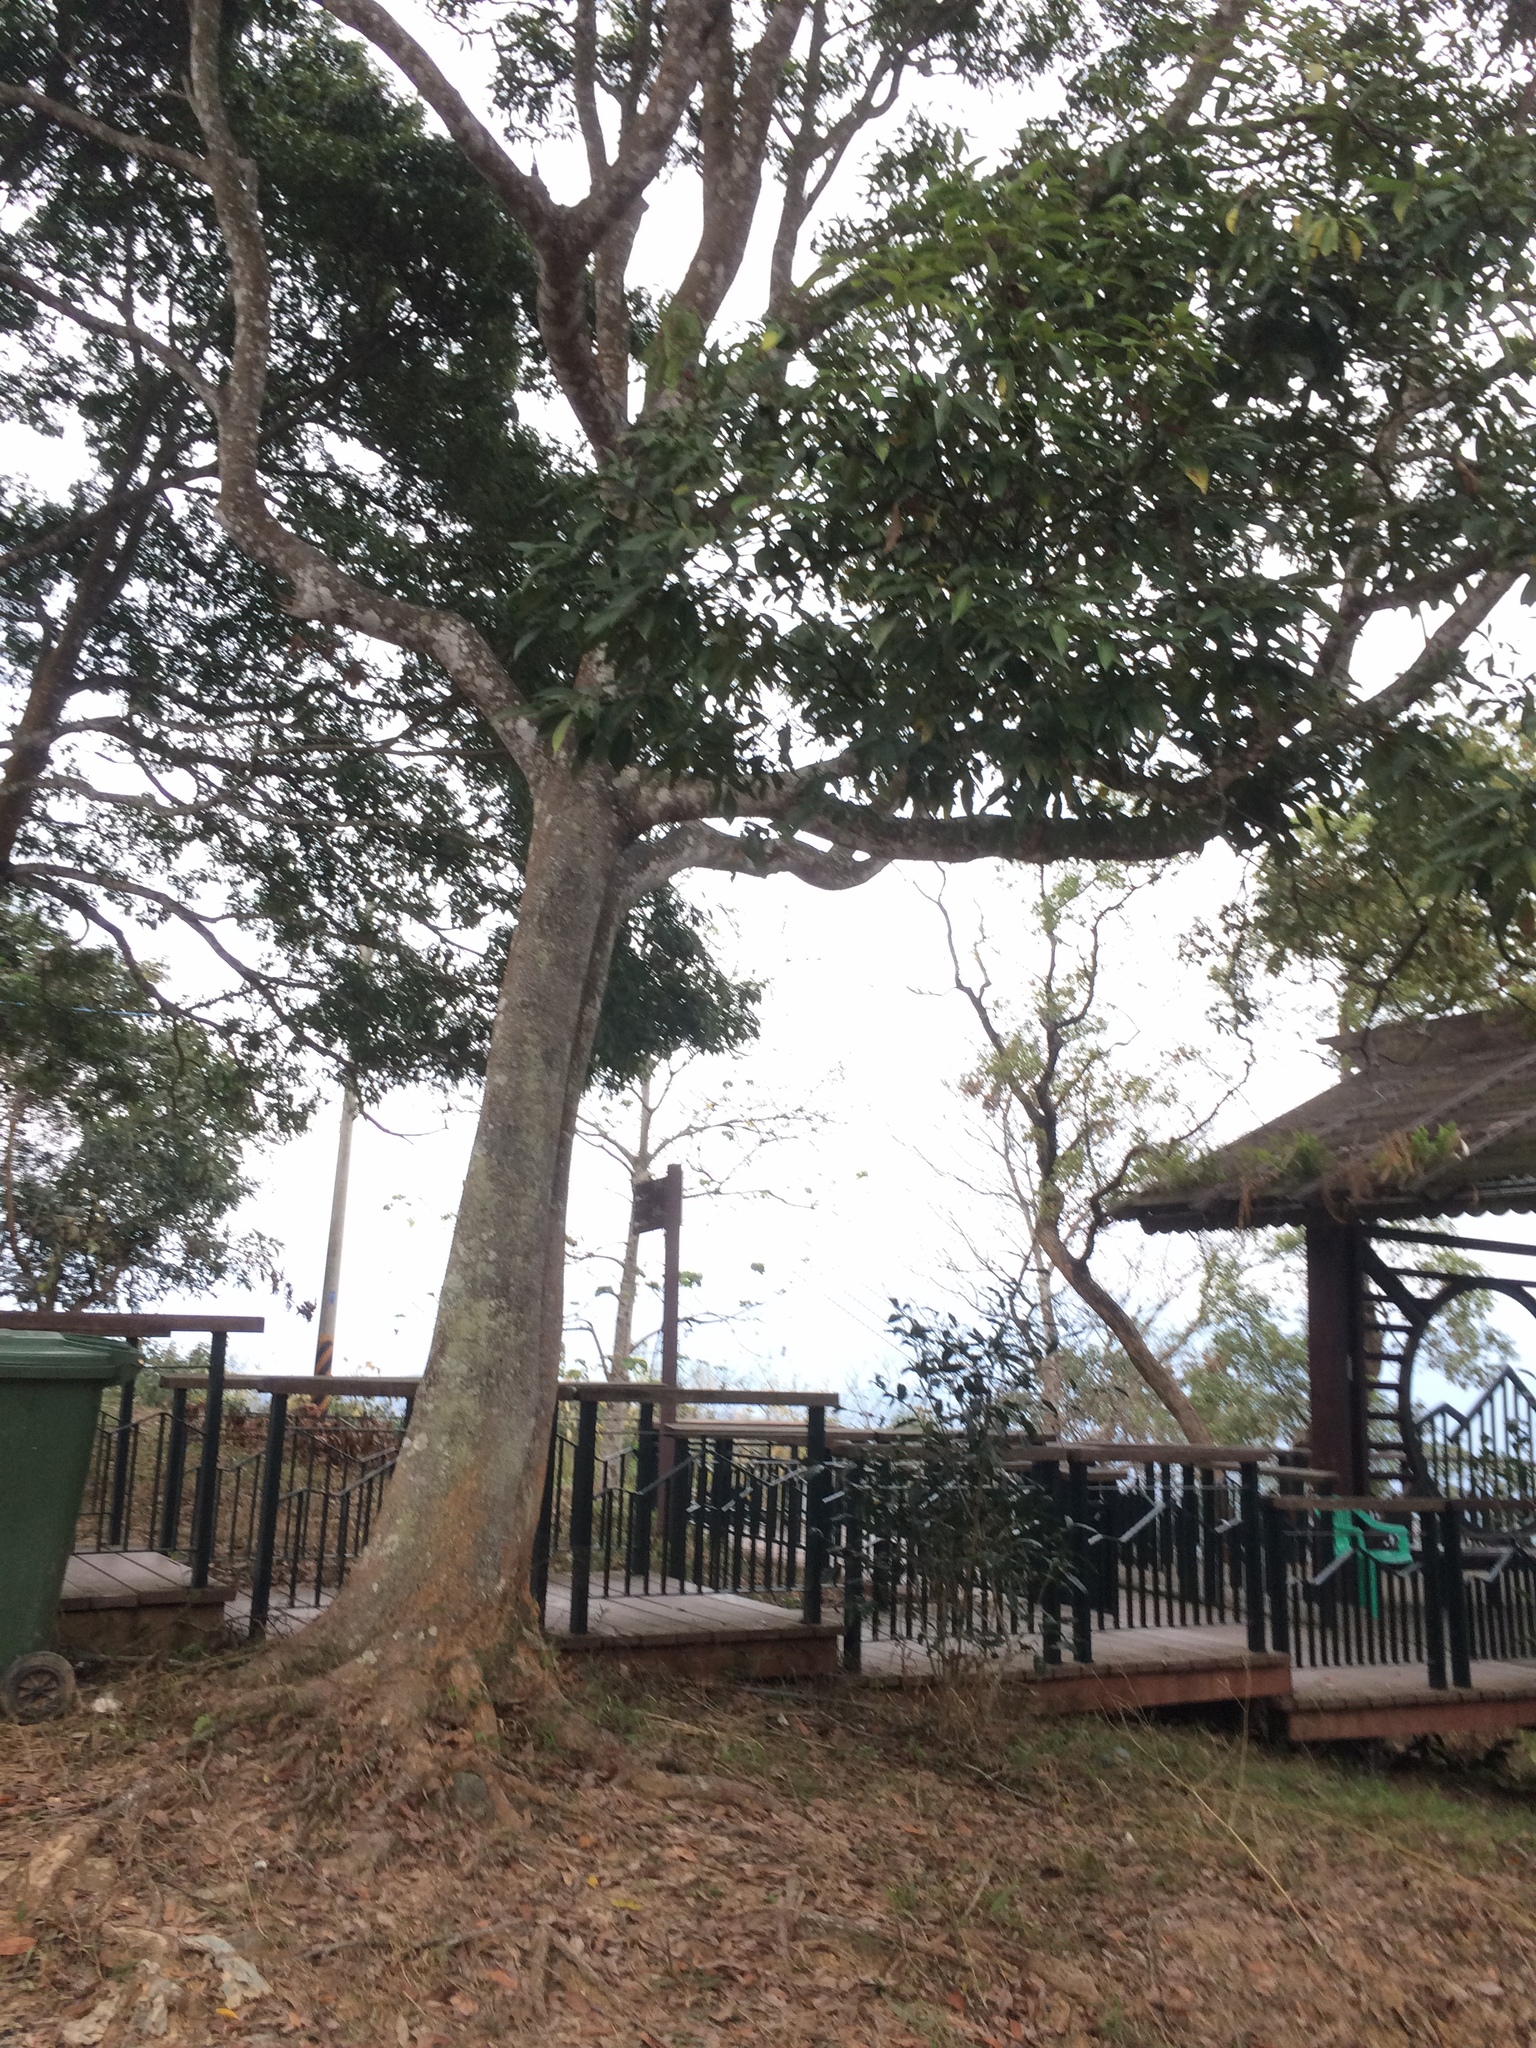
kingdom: Plantae
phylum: Tracheophyta
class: Magnoliopsida
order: Laurales
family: Lauraceae
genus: Machilus
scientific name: Machilus zuihoensis
